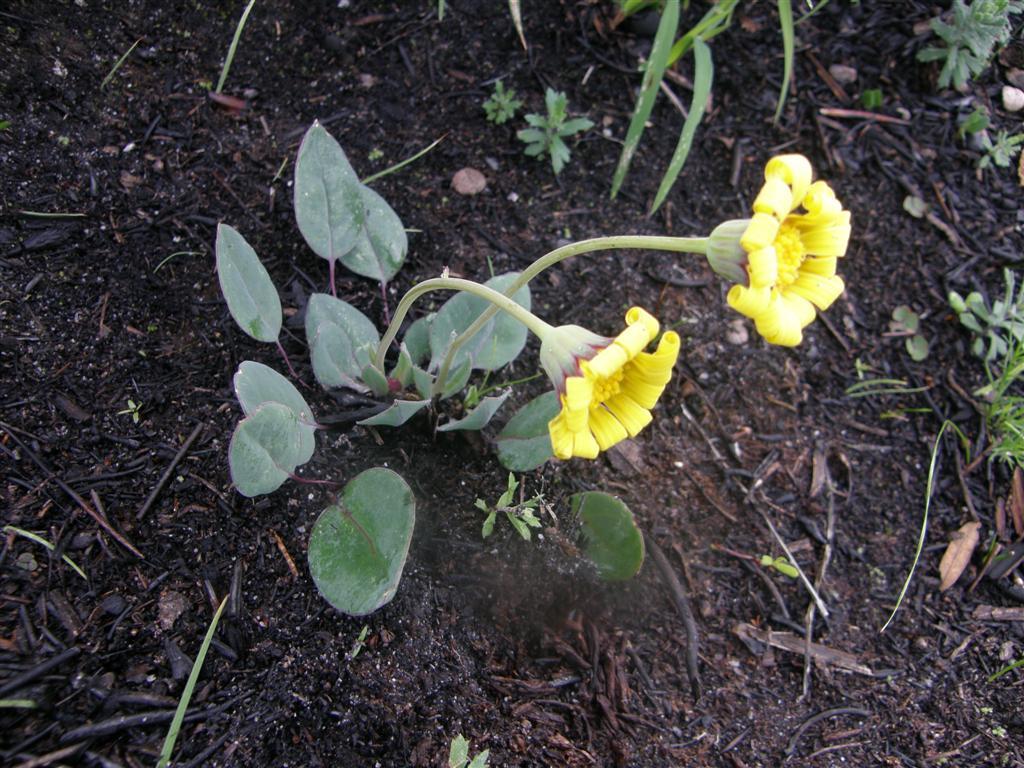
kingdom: Plantae
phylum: Tracheophyta
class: Magnoliopsida
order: Asterales
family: Asteraceae
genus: Othonna
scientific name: Othonna bulbosa
